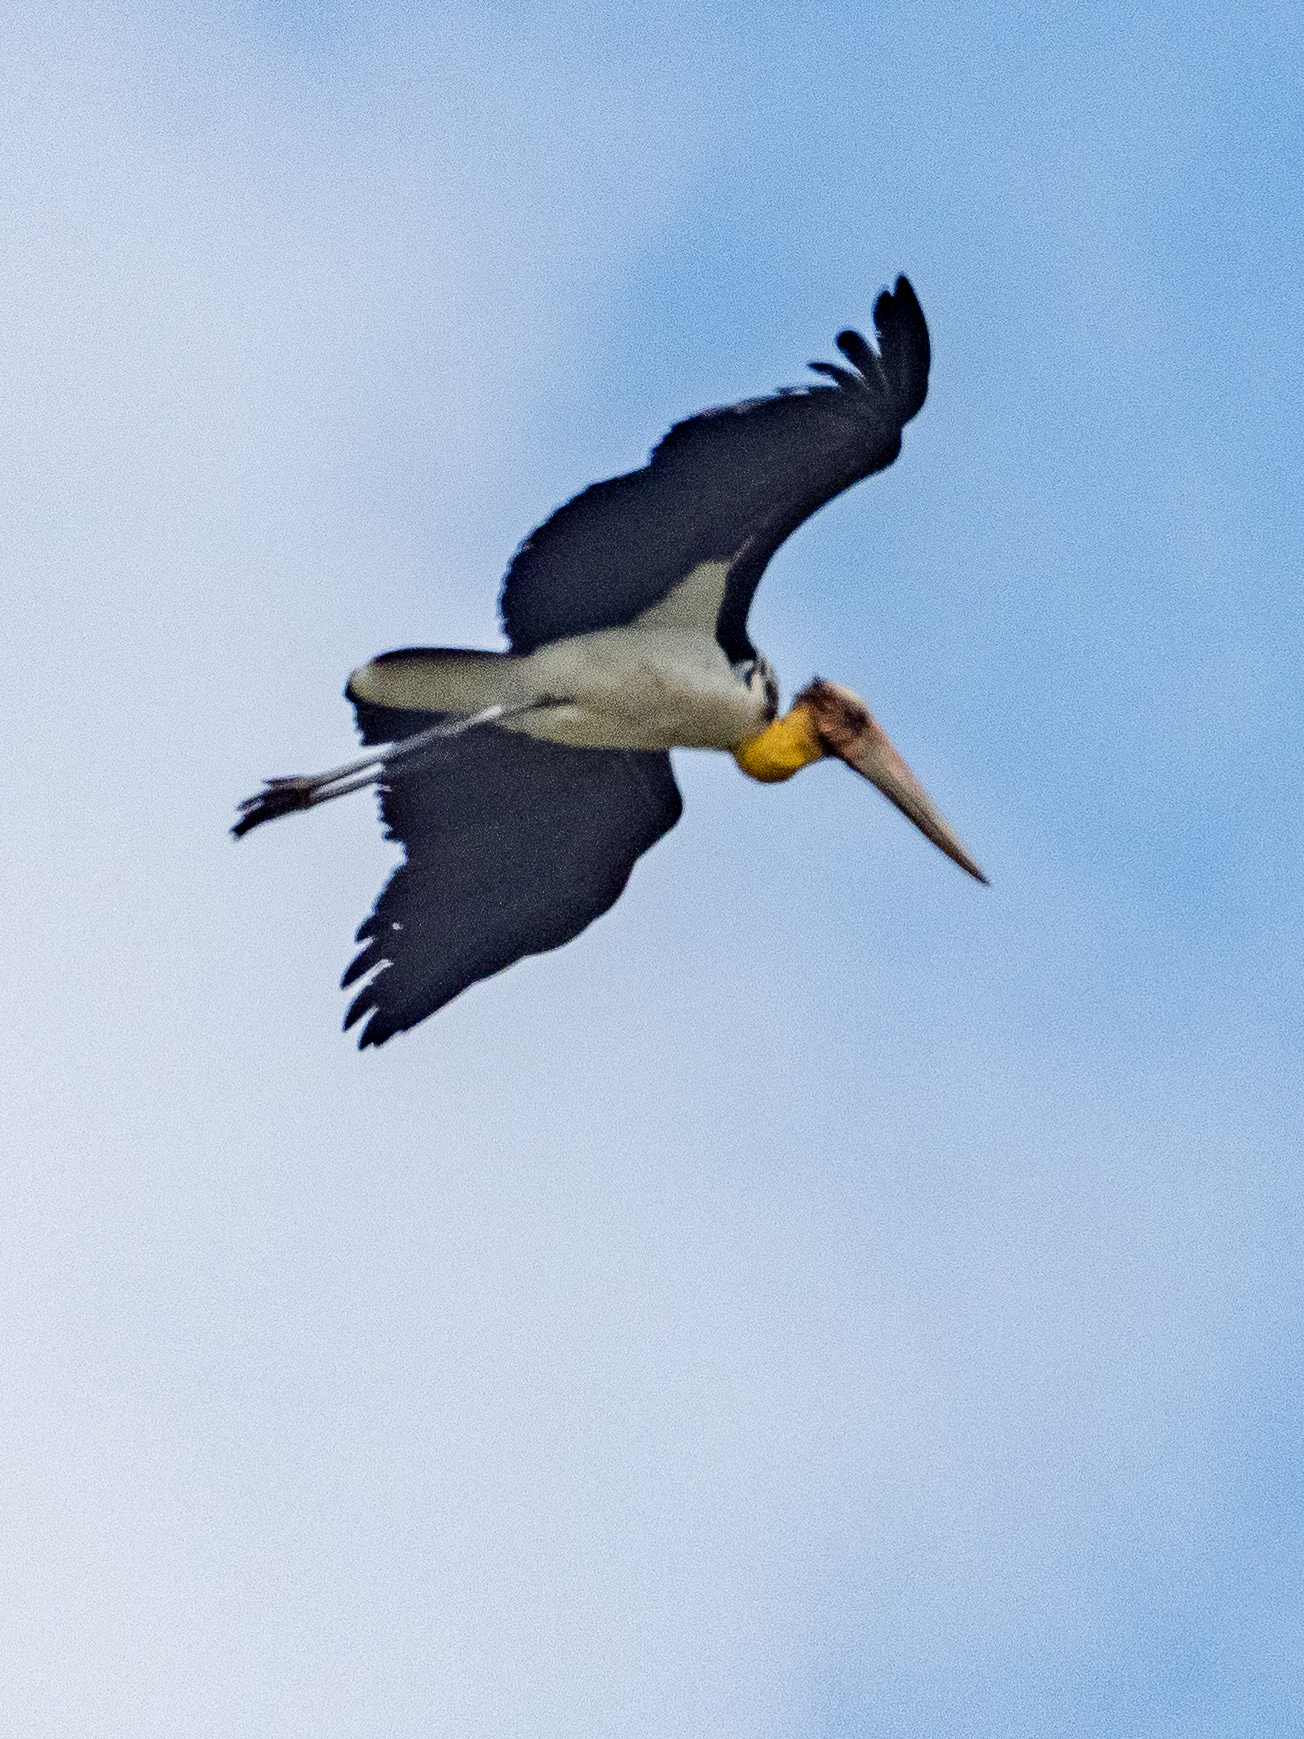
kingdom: Animalia
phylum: Chordata
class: Aves
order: Ciconiiformes
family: Ciconiidae
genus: Leptoptilos
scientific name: Leptoptilos javanicus
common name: Lesser adjutant
